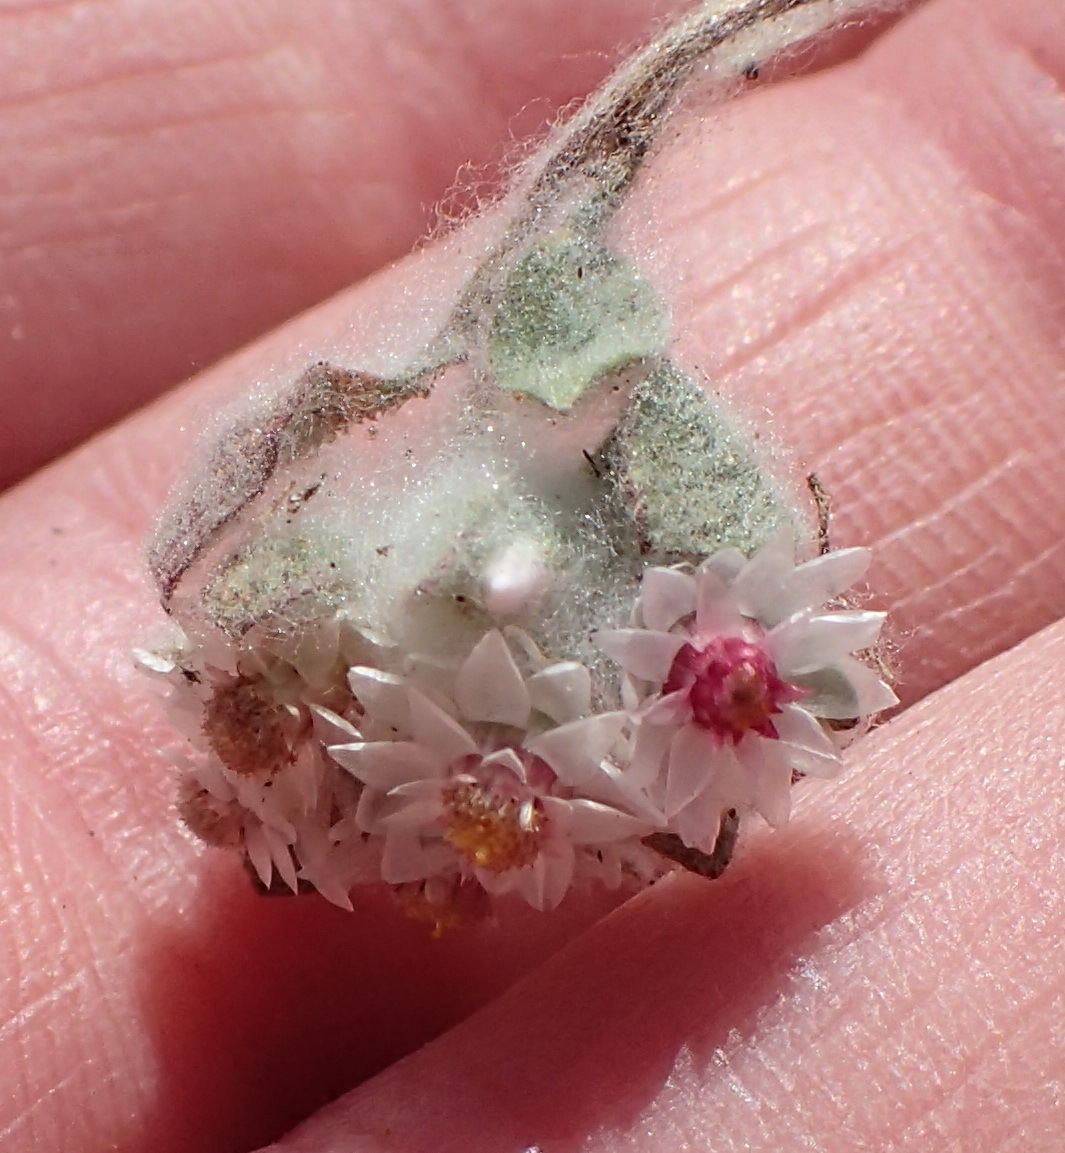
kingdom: Plantae
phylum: Tracheophyta
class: Magnoliopsida
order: Asterales
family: Asteraceae
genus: Helichrysum
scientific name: Helichrysum argyrosphaerum
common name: Wild everlasting
